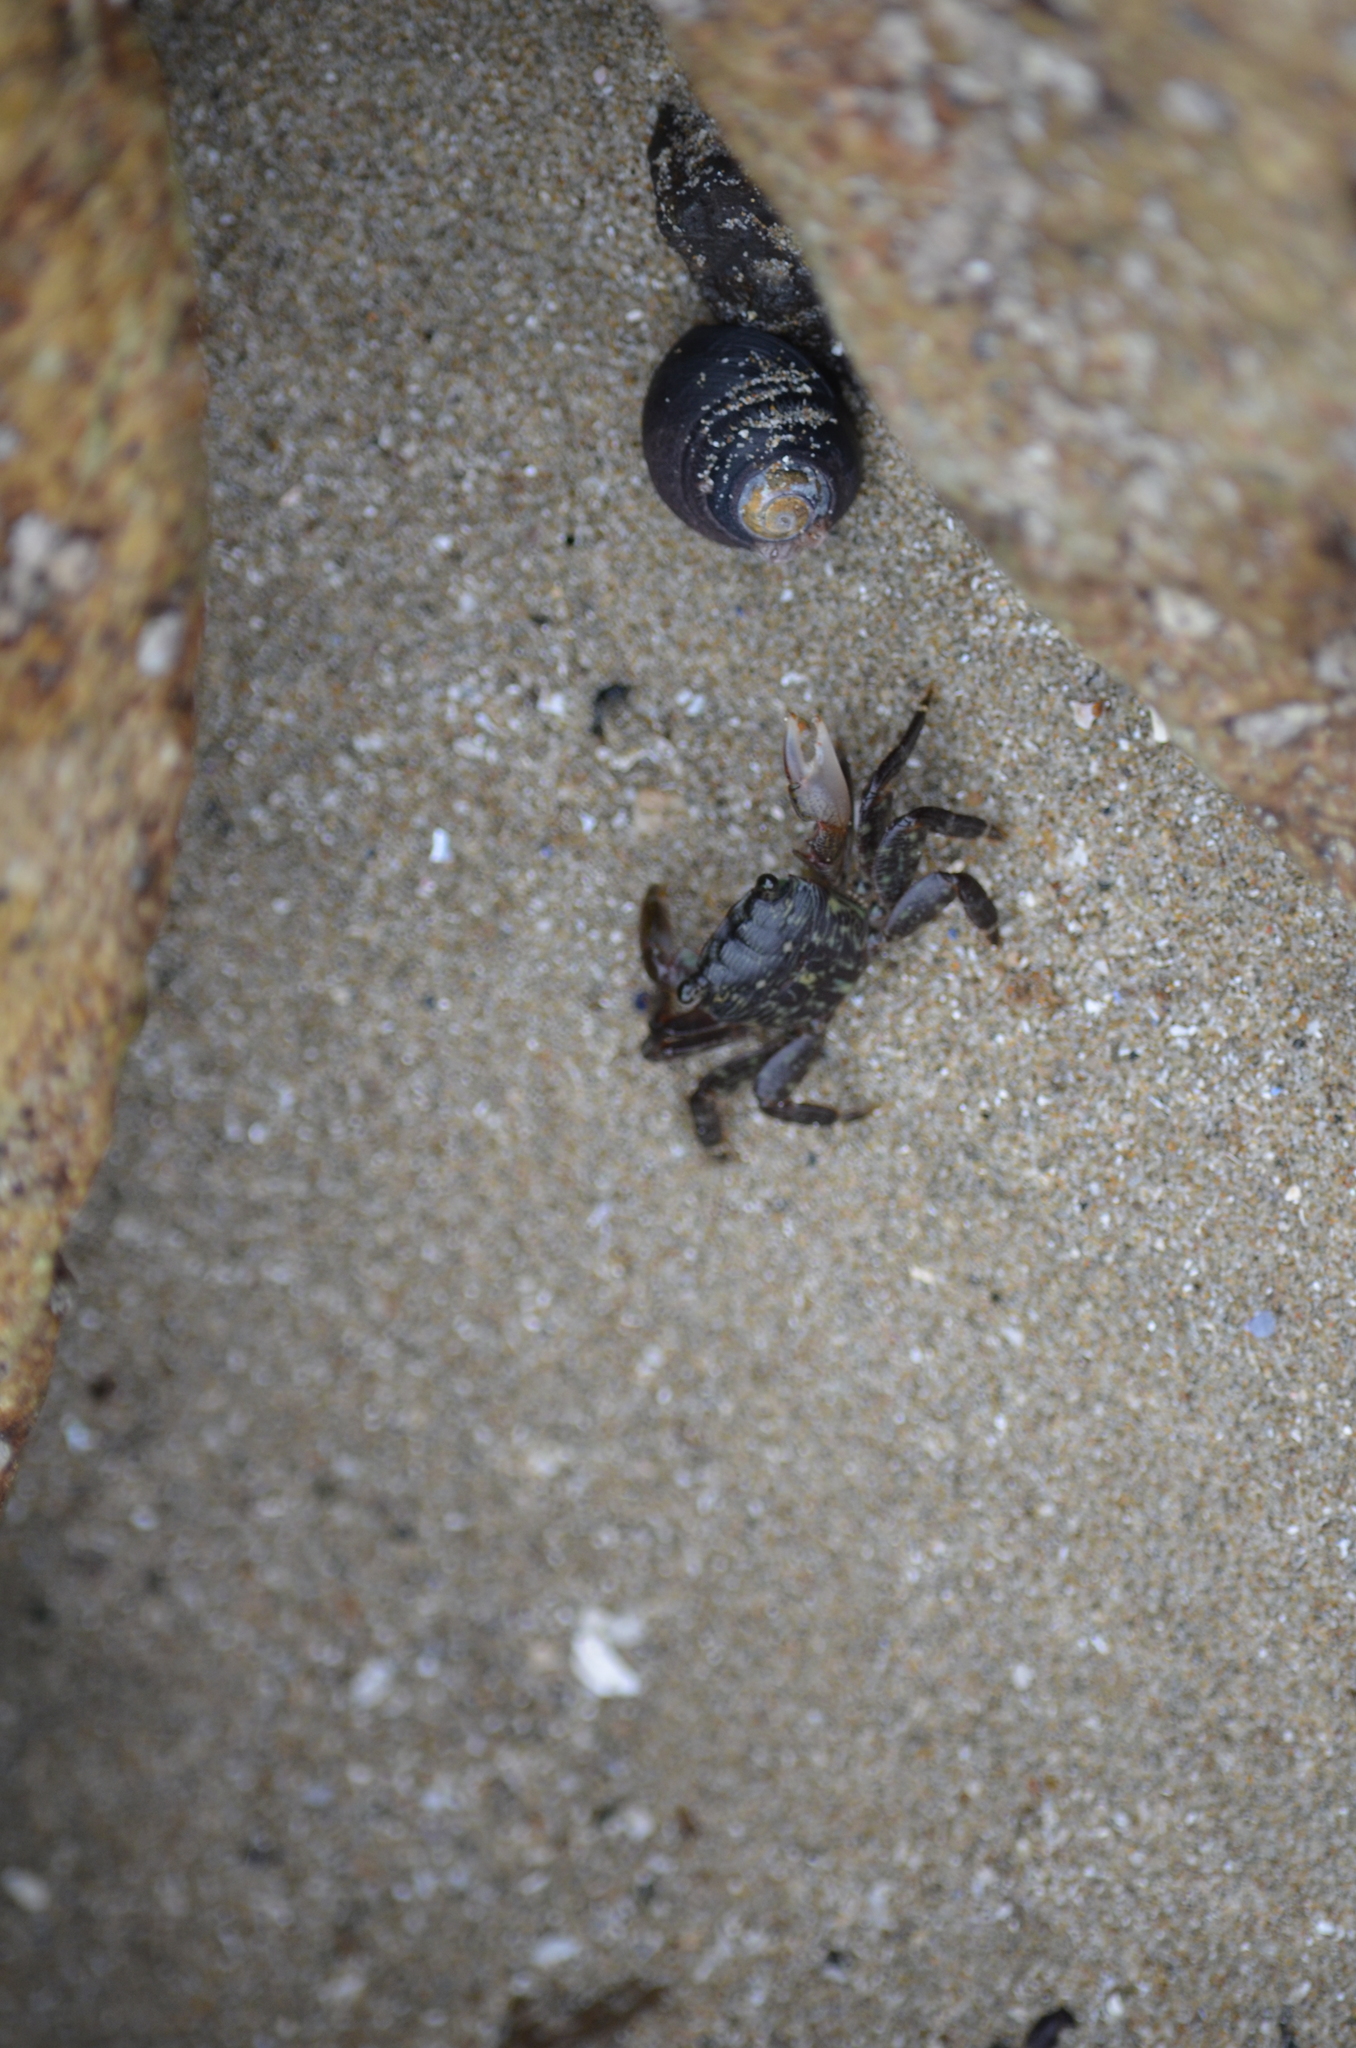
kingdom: Animalia
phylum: Arthropoda
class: Malacostraca
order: Decapoda
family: Grapsidae
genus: Pachygrapsus
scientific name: Pachygrapsus crassipes
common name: Striped shore crab
